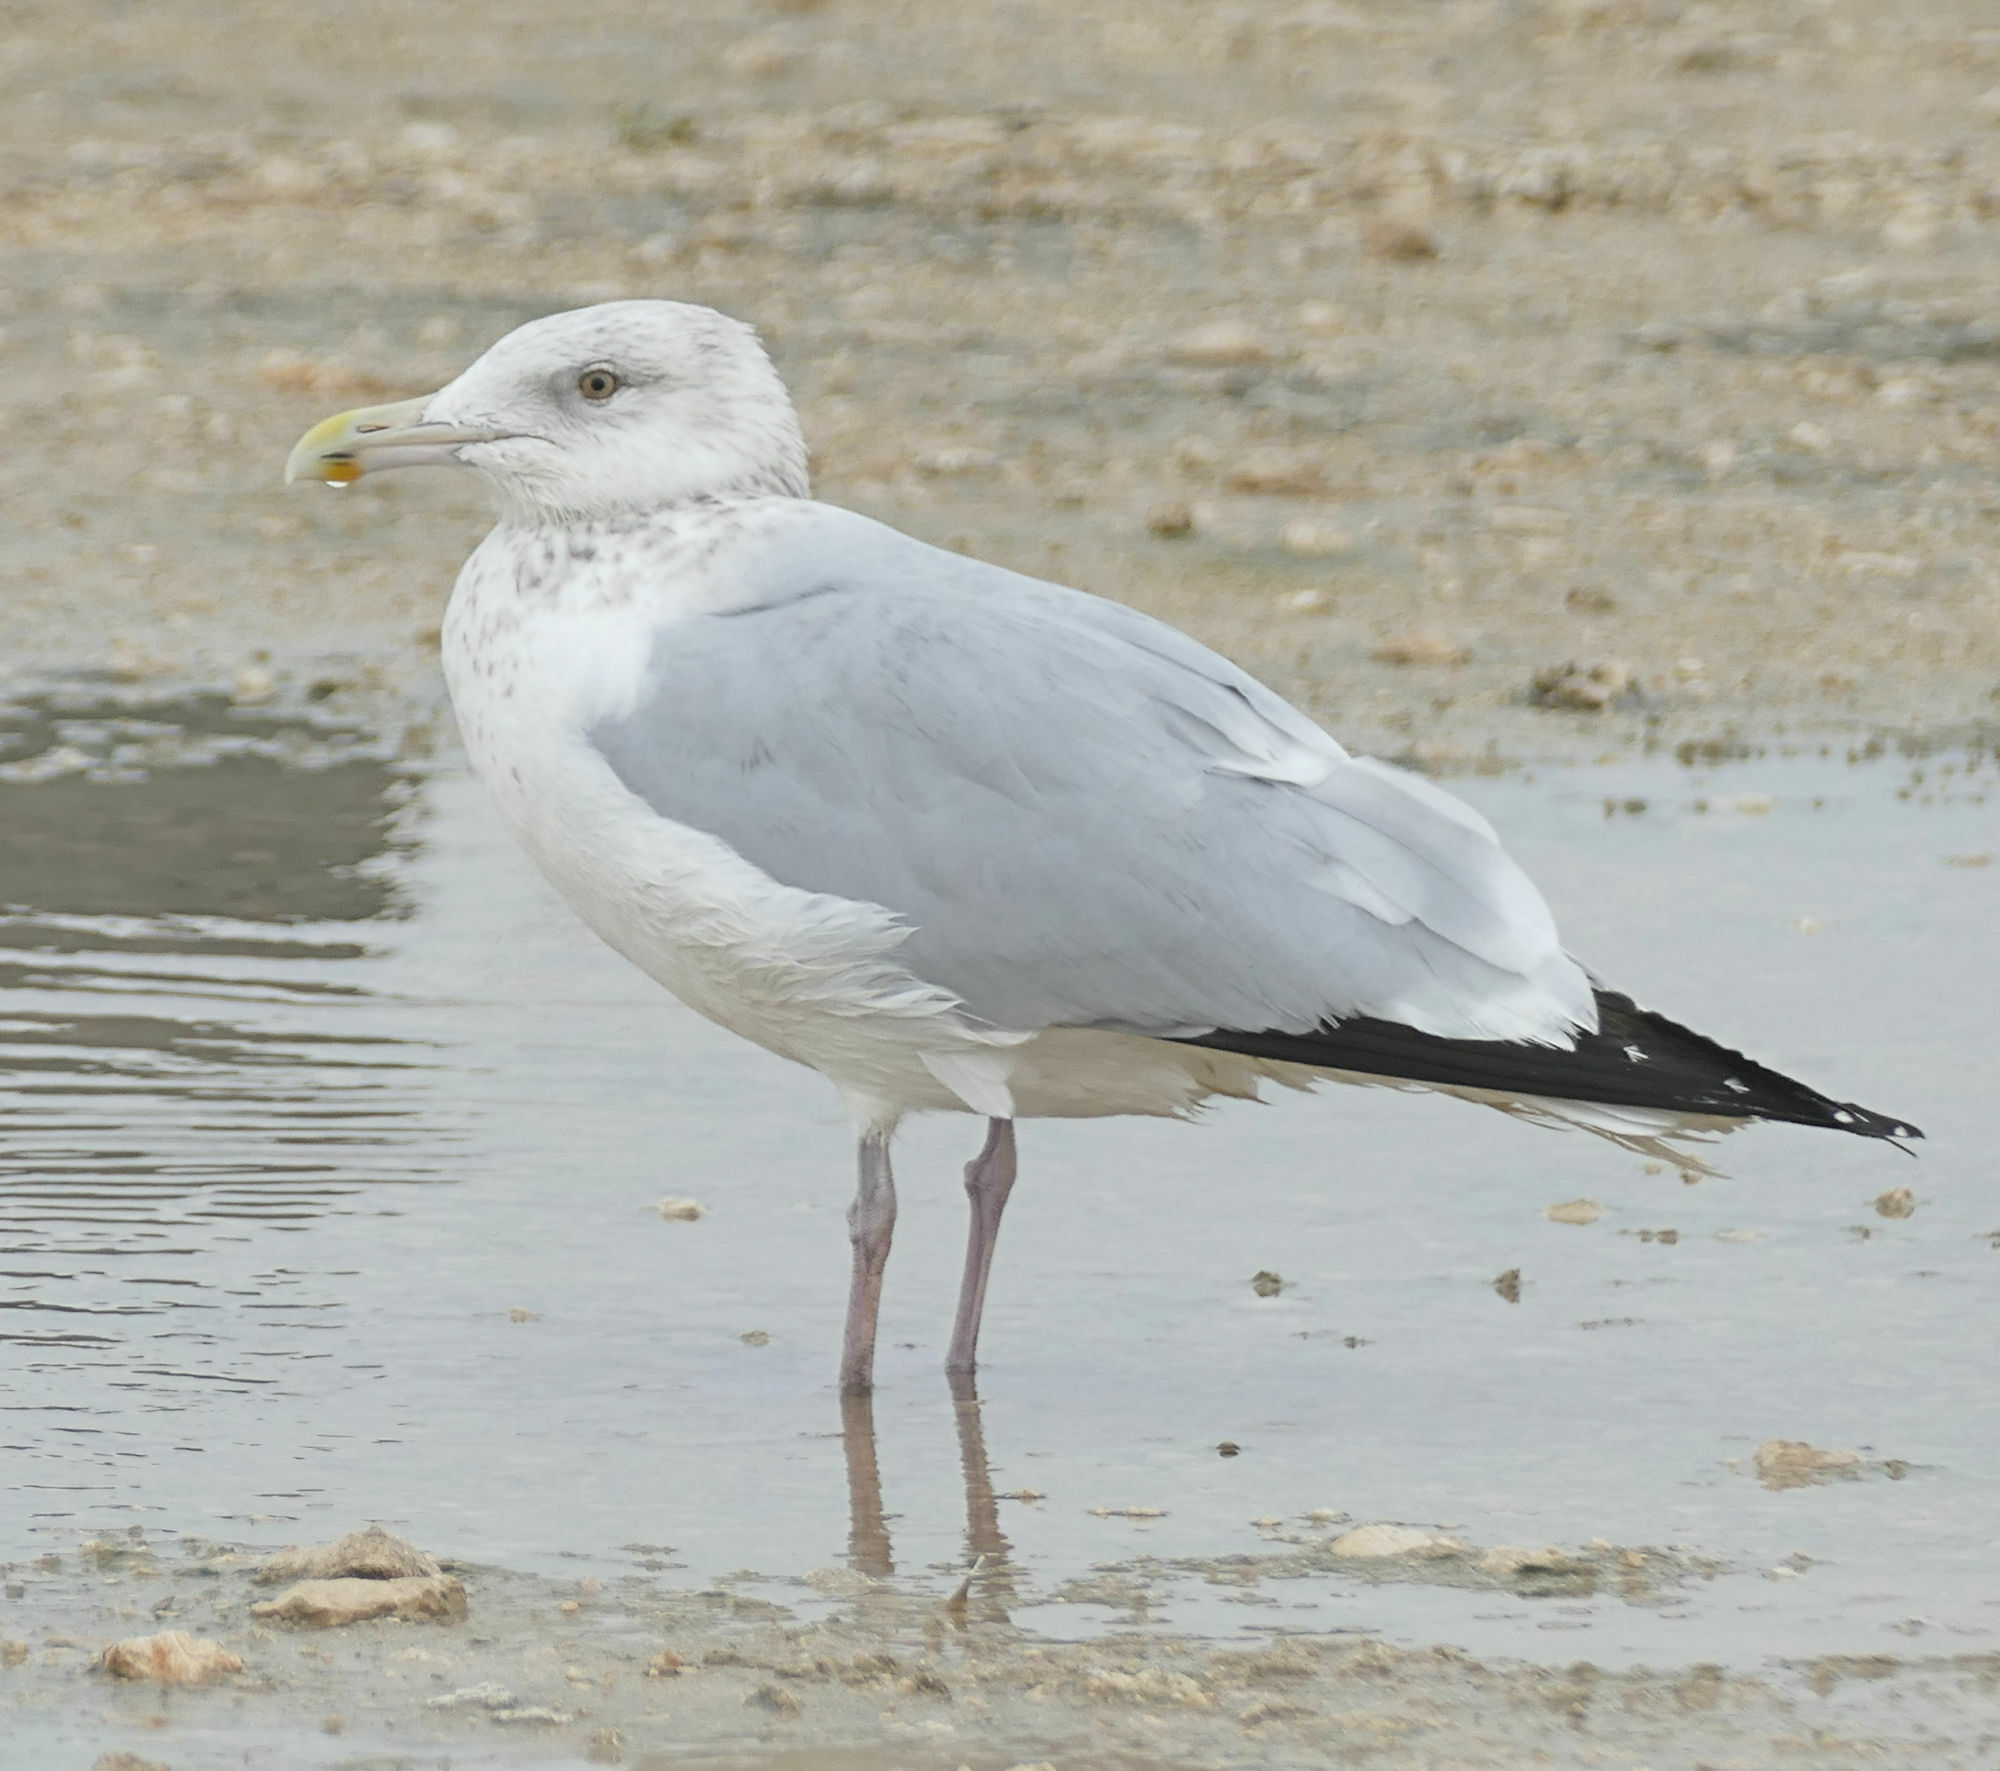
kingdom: Animalia
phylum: Chordata
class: Aves
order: Charadriiformes
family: Laridae
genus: Larus
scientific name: Larus argentatus
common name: Herring gull
